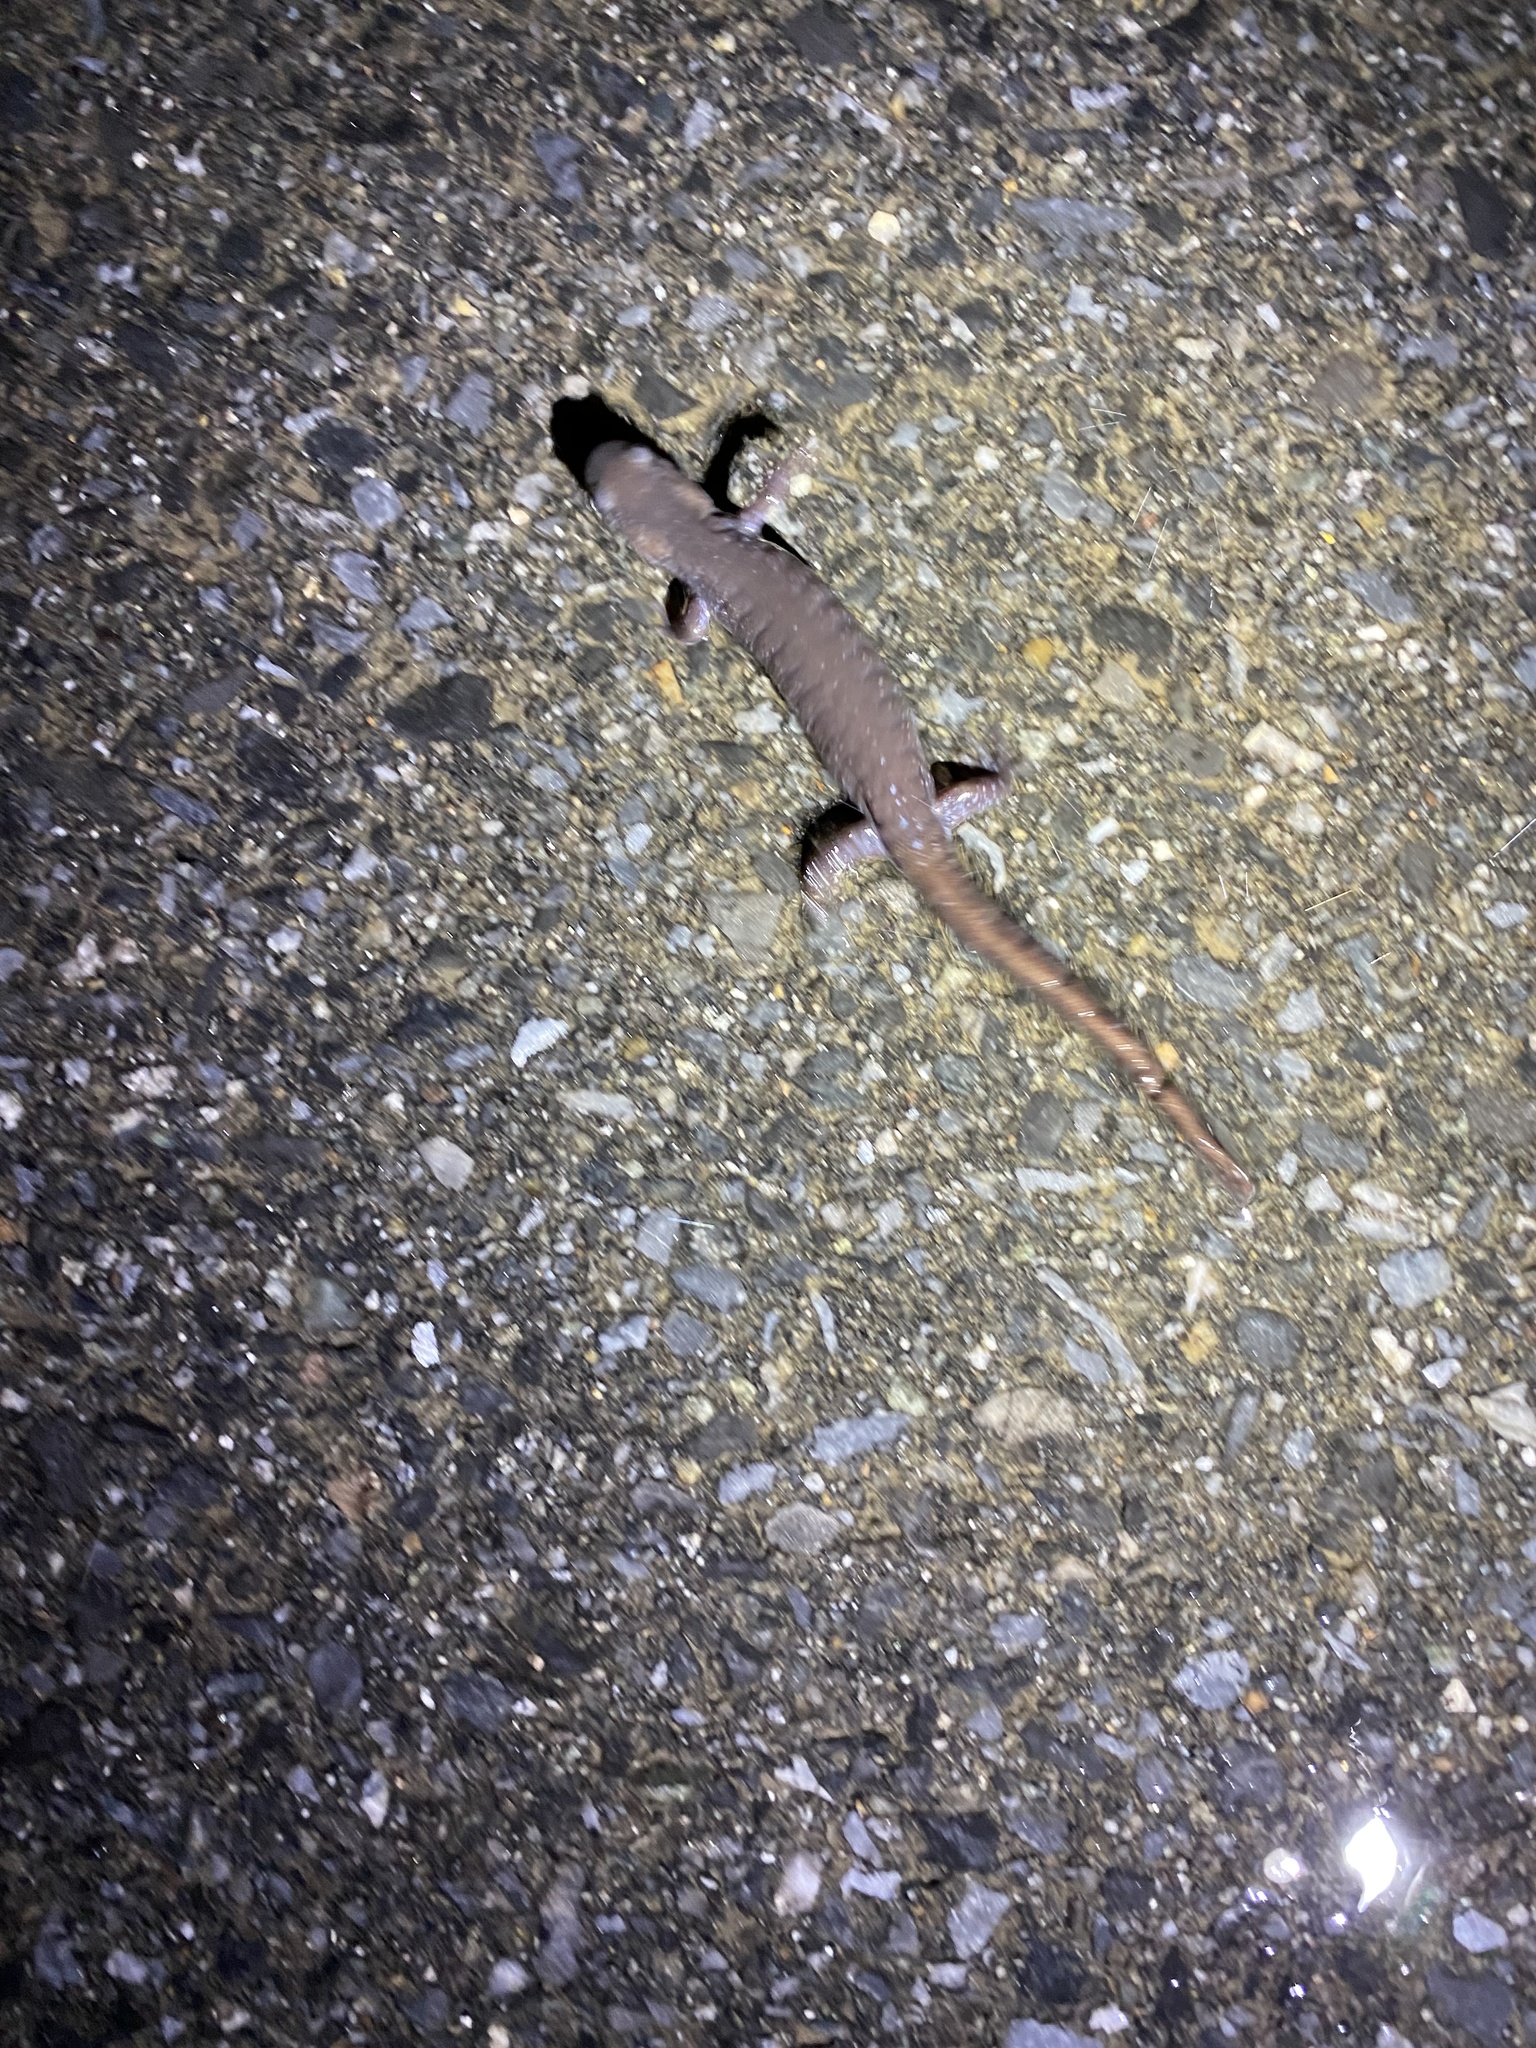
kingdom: Animalia
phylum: Chordata
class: Amphibia
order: Caudata
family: Ambystomatidae
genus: Ambystoma
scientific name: Ambystoma unisexual
